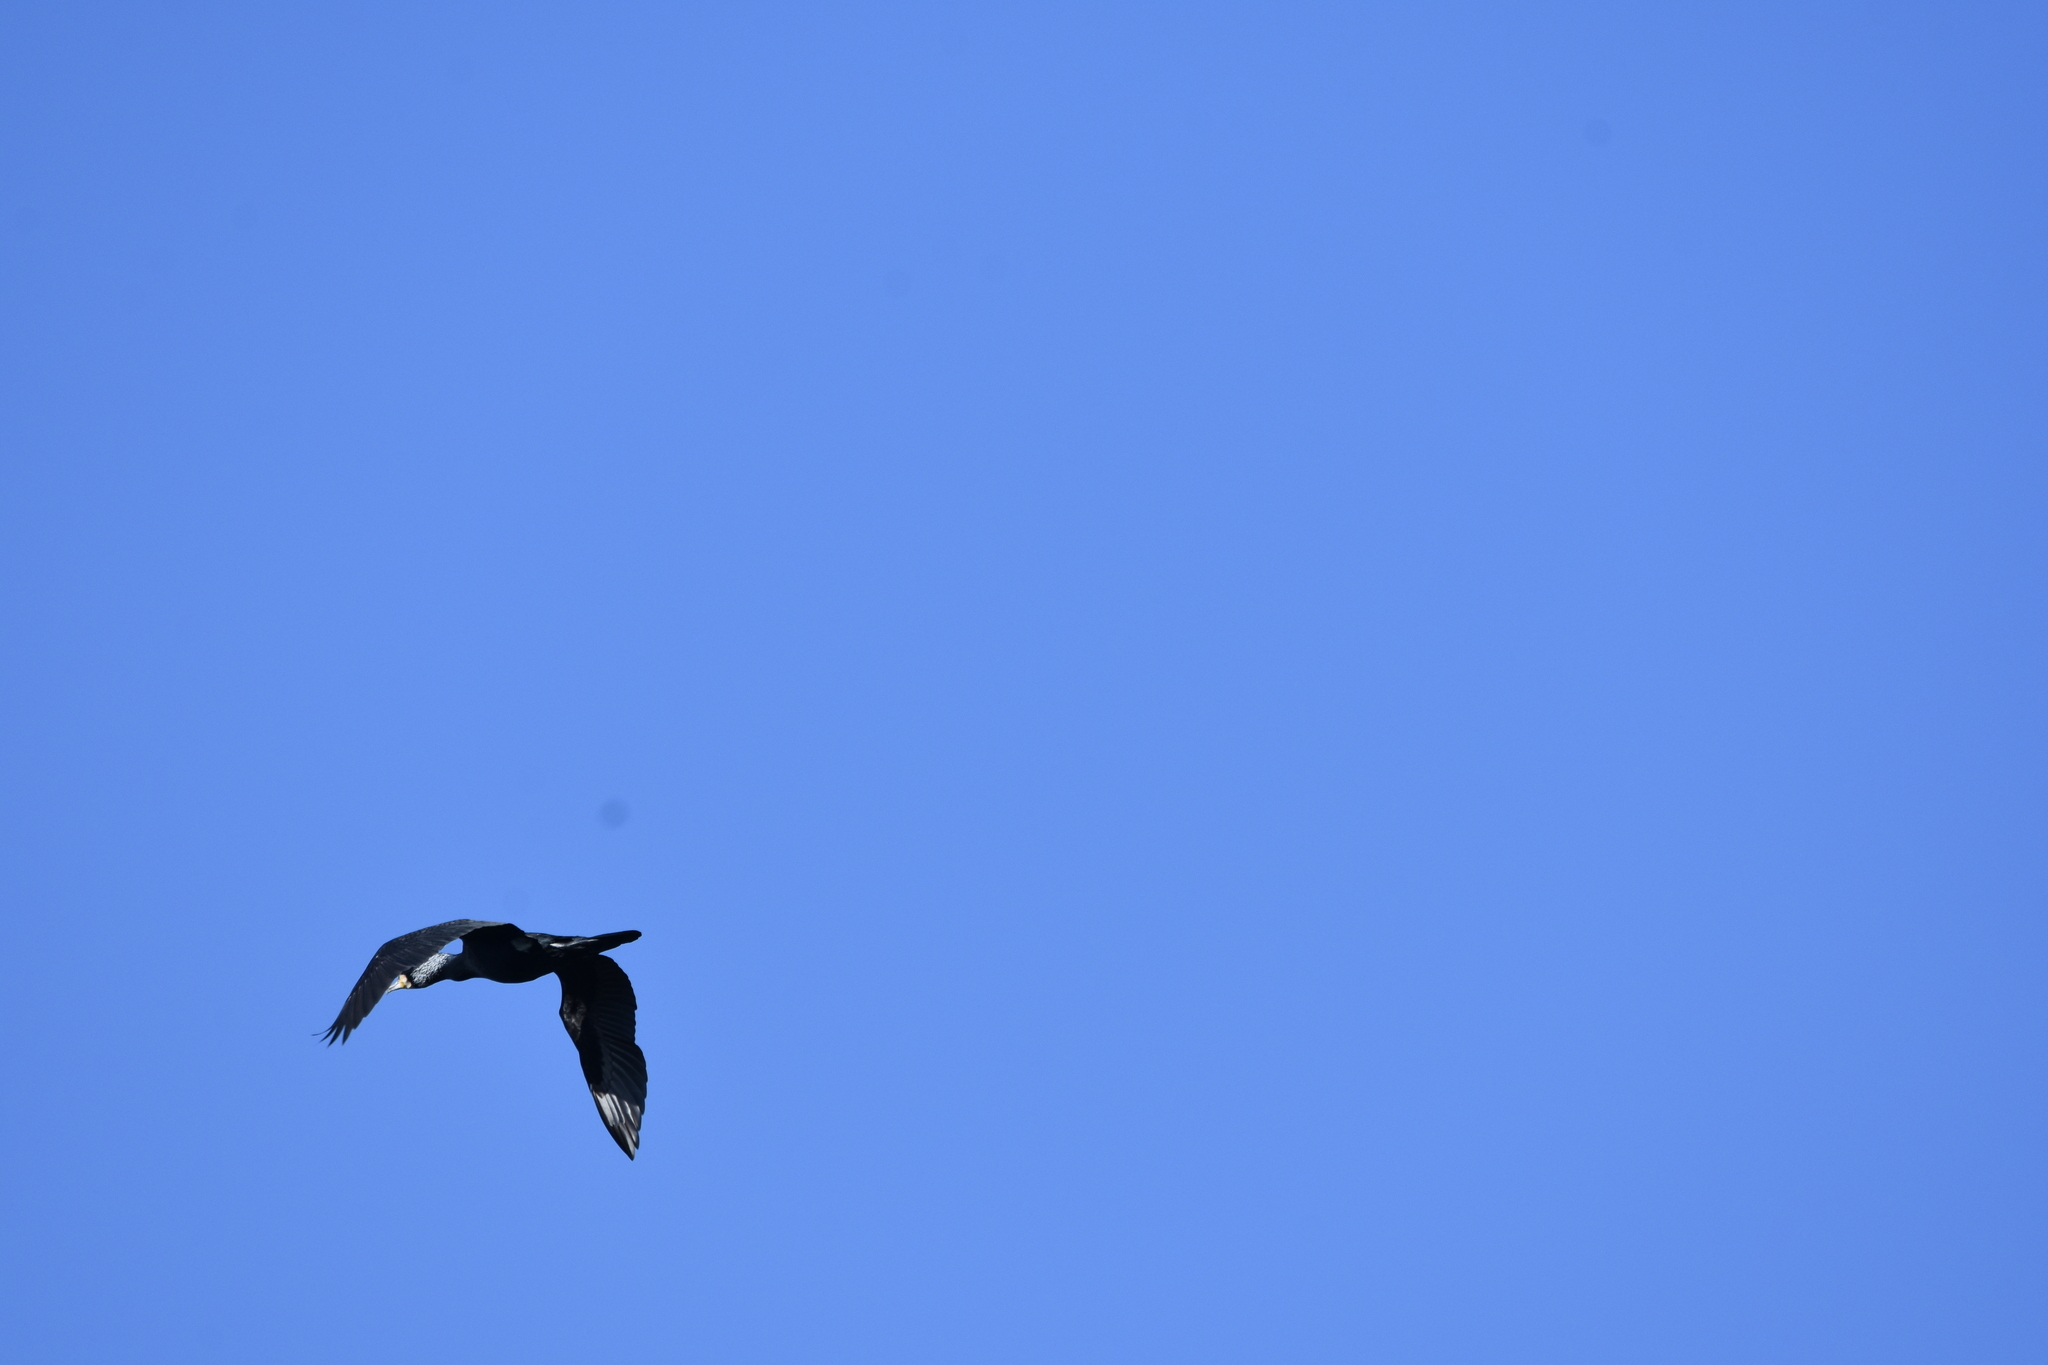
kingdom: Animalia
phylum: Chordata
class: Aves
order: Suliformes
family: Phalacrocoracidae
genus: Phalacrocorax
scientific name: Phalacrocorax carbo
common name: Great cormorant
